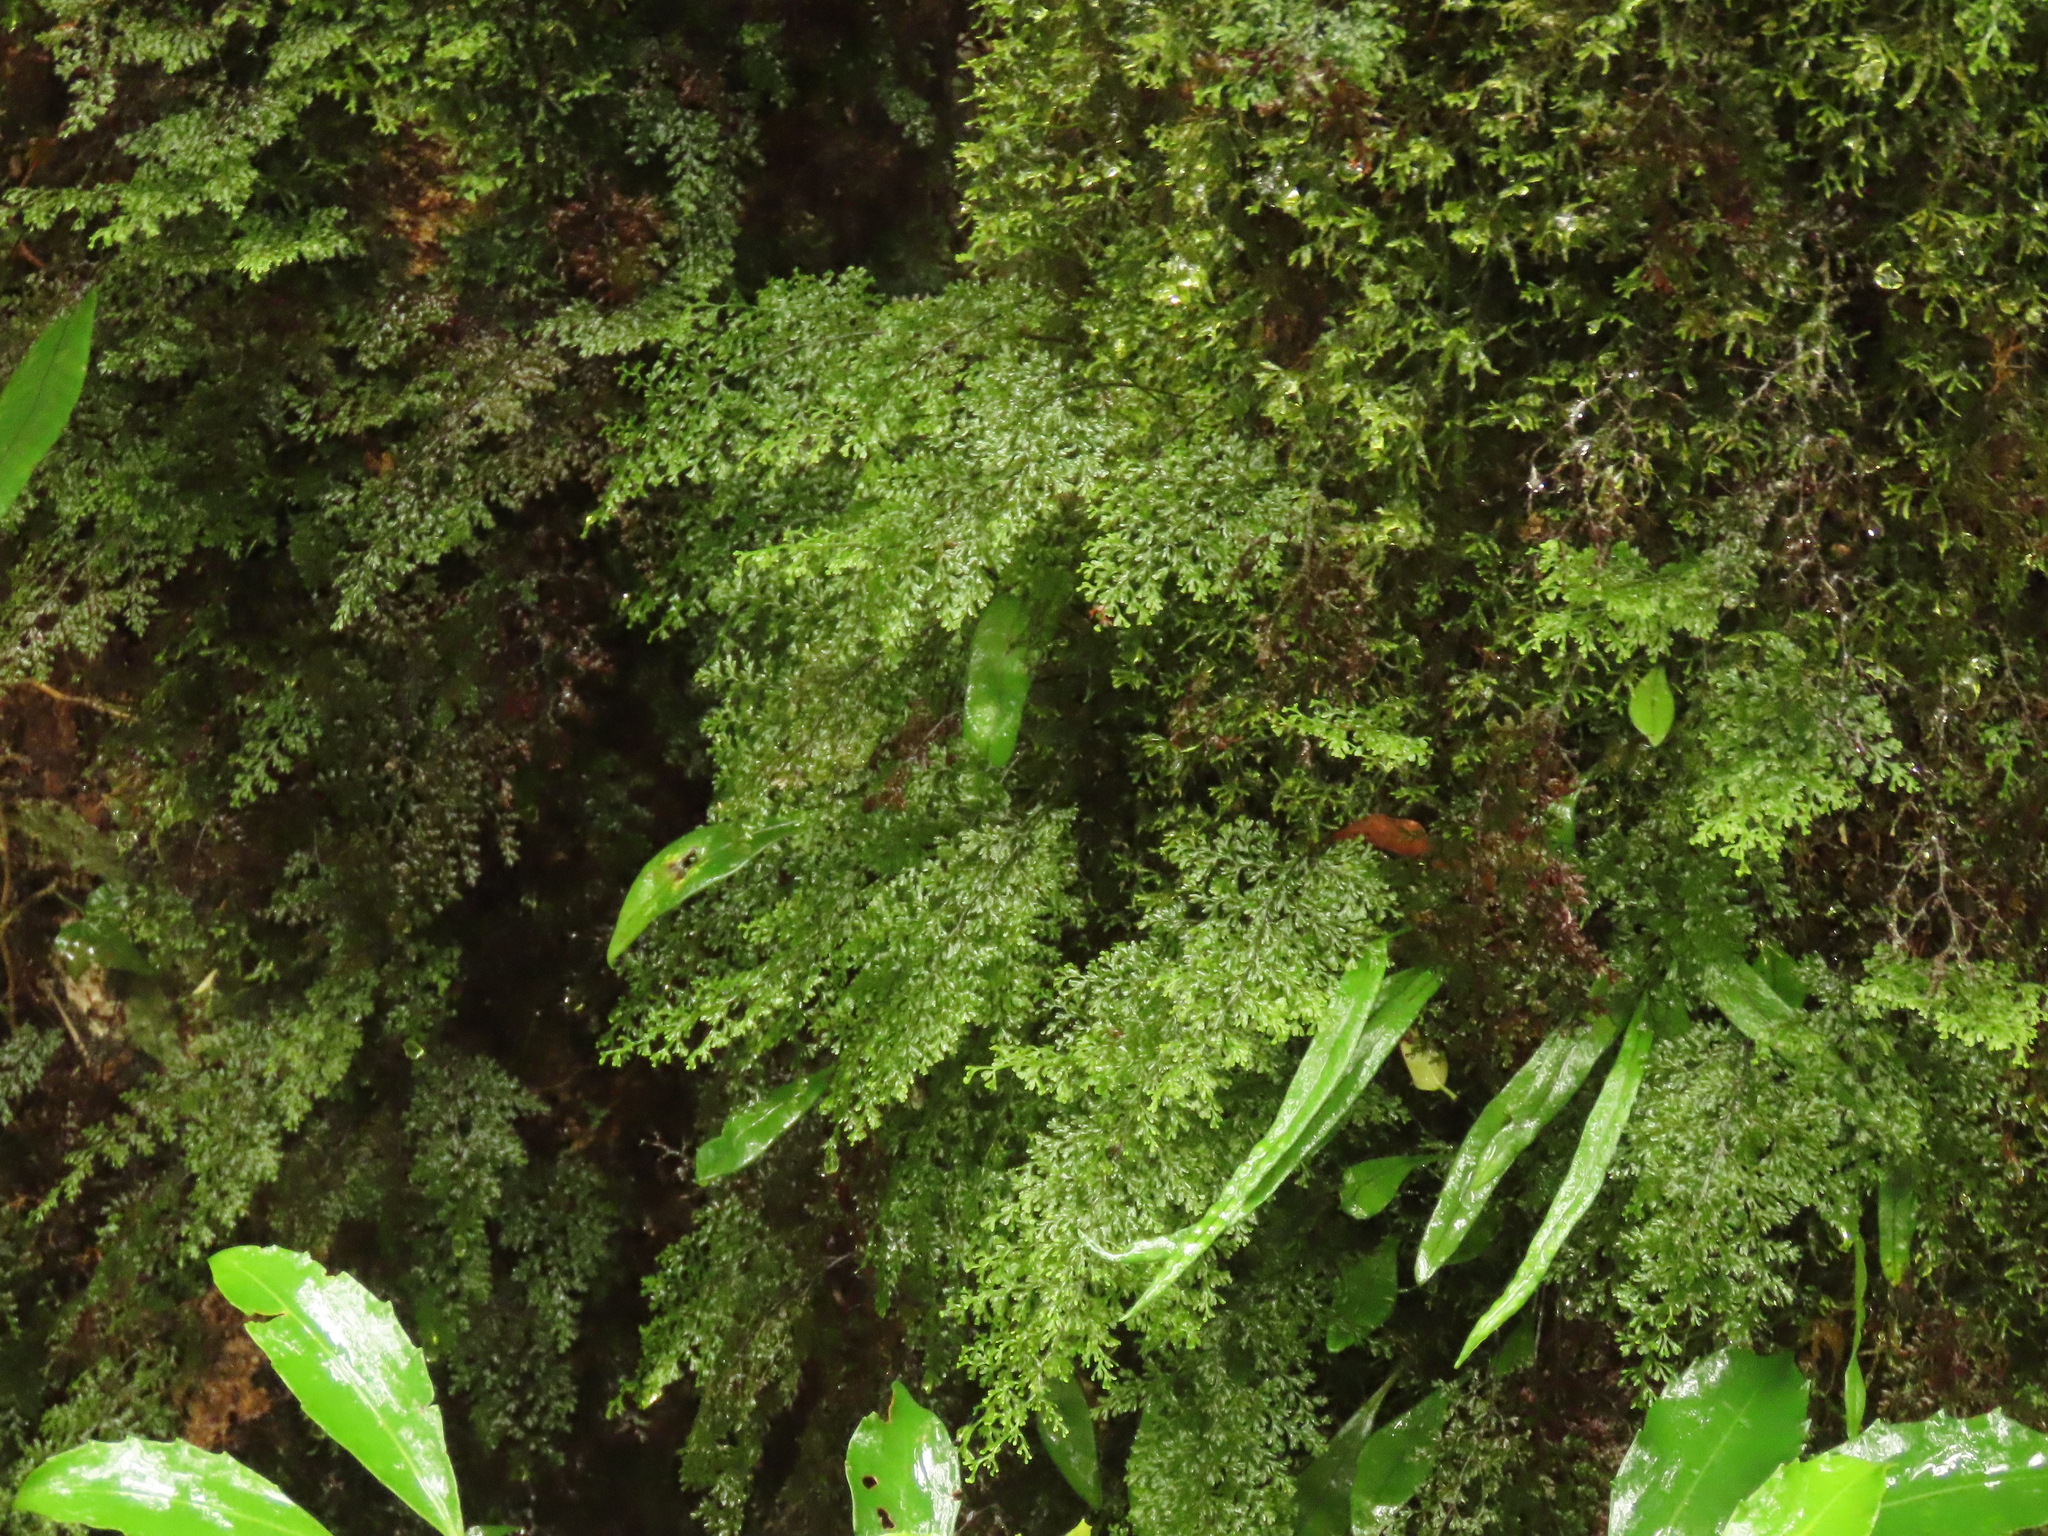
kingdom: Plantae
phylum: Tracheophyta
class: Polypodiopsida
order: Hymenophyllales
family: Hymenophyllaceae
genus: Hymenophyllum
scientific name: Hymenophyllum fujisanense
